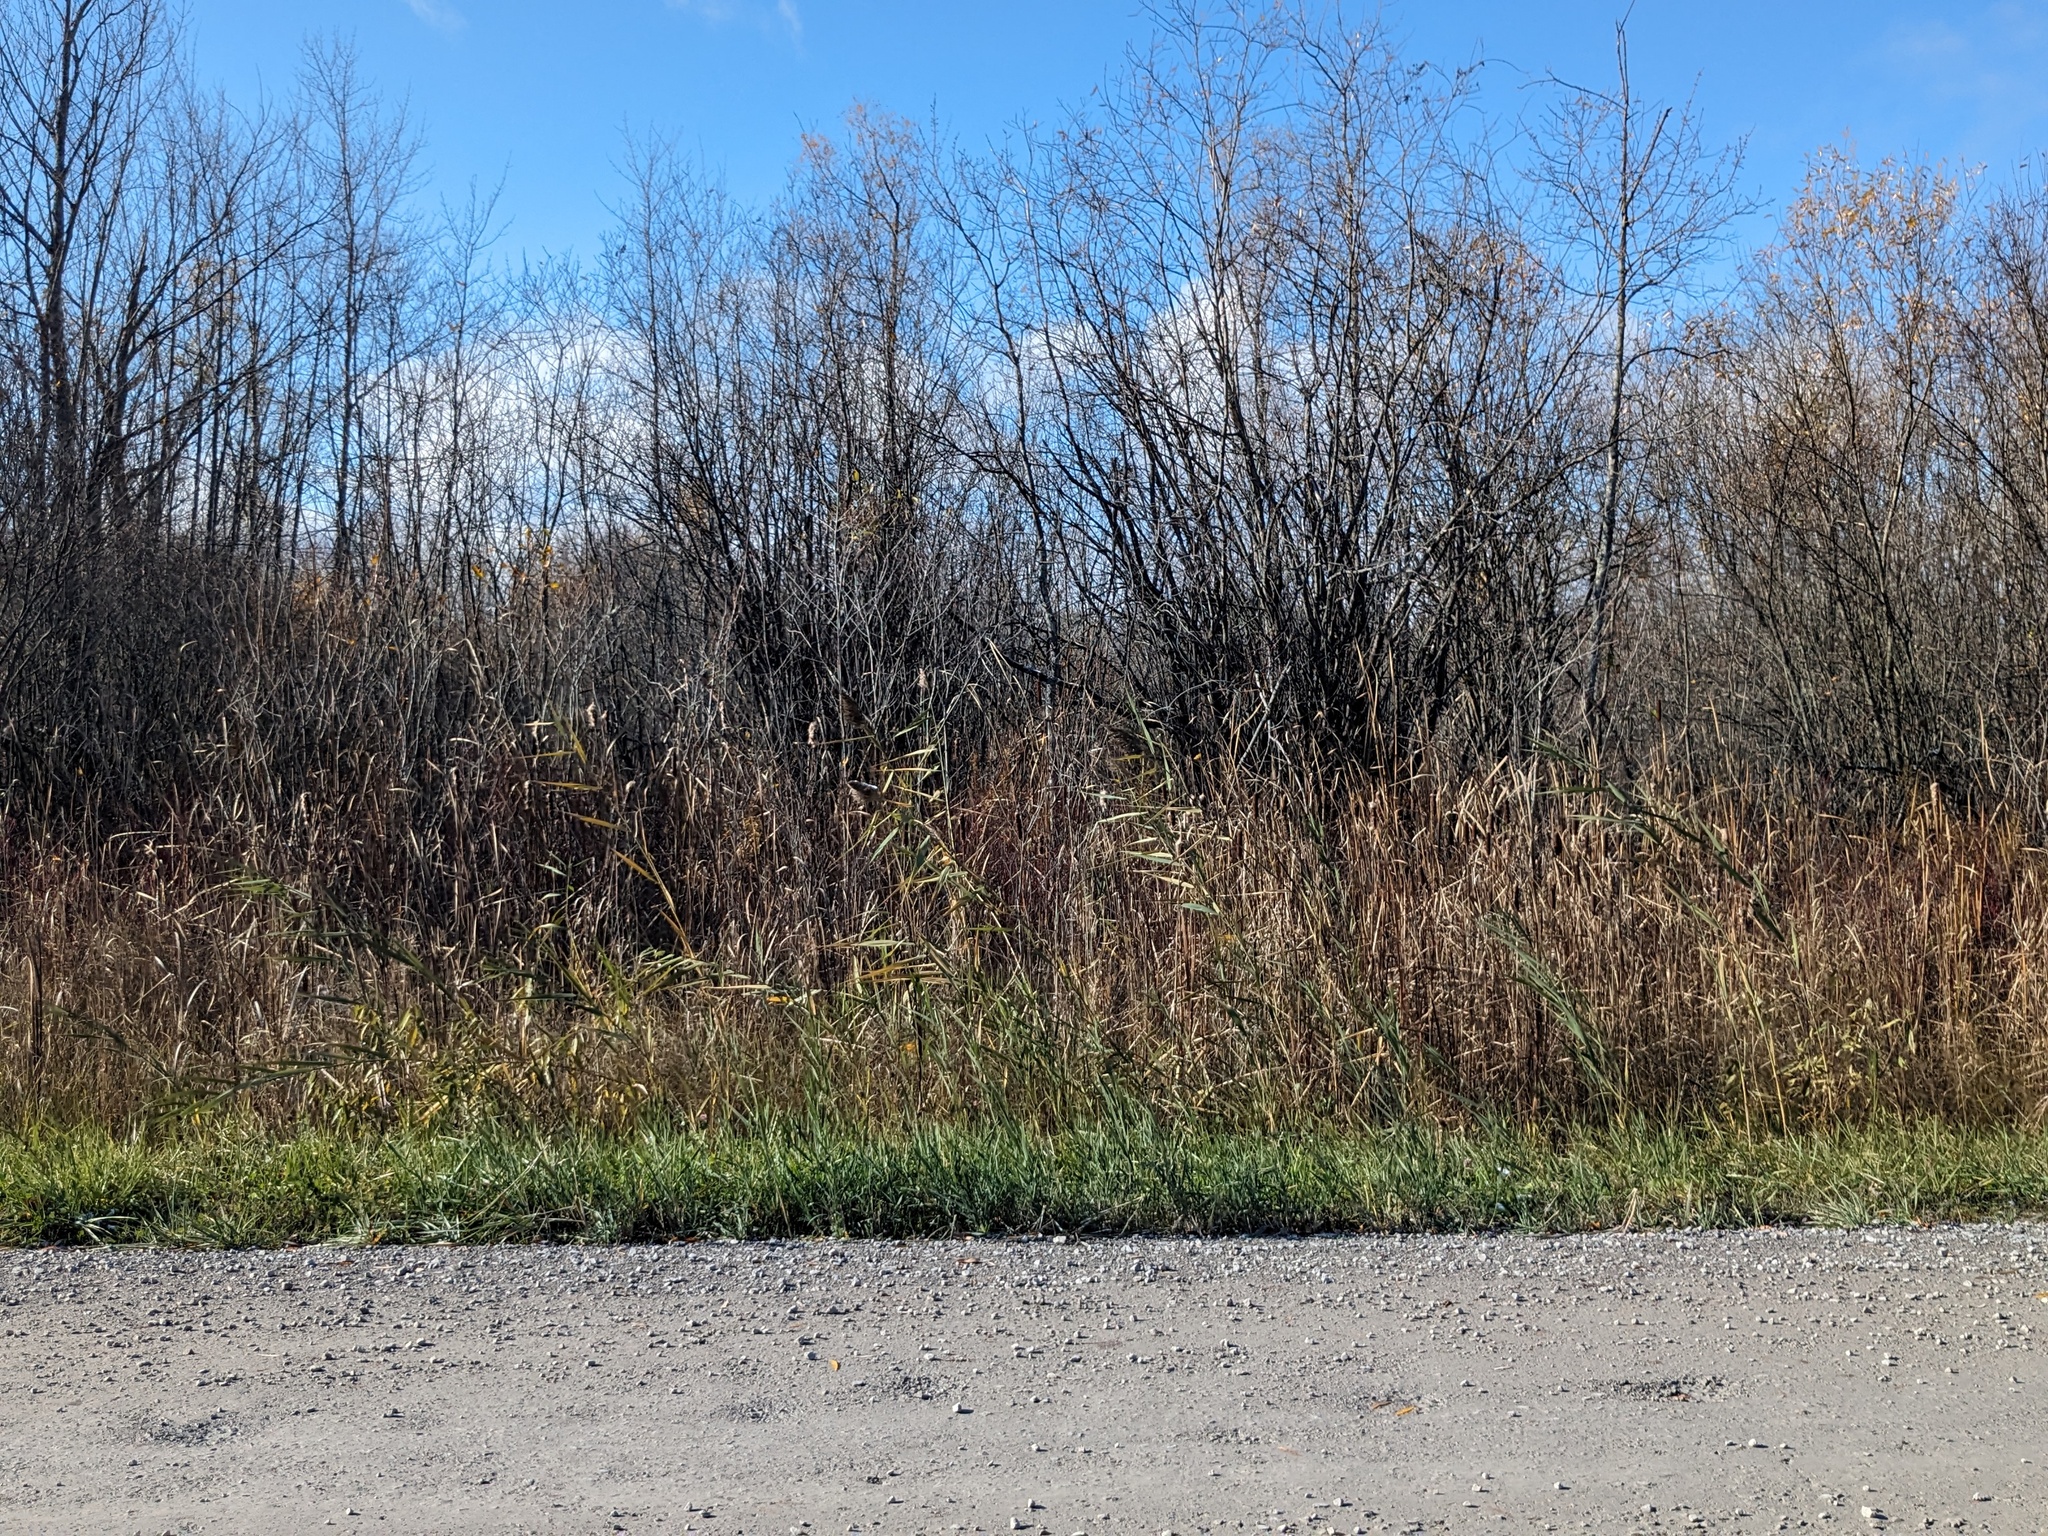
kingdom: Plantae
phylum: Tracheophyta
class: Liliopsida
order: Poales
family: Poaceae
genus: Phragmites
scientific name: Phragmites australis
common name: Common reed
